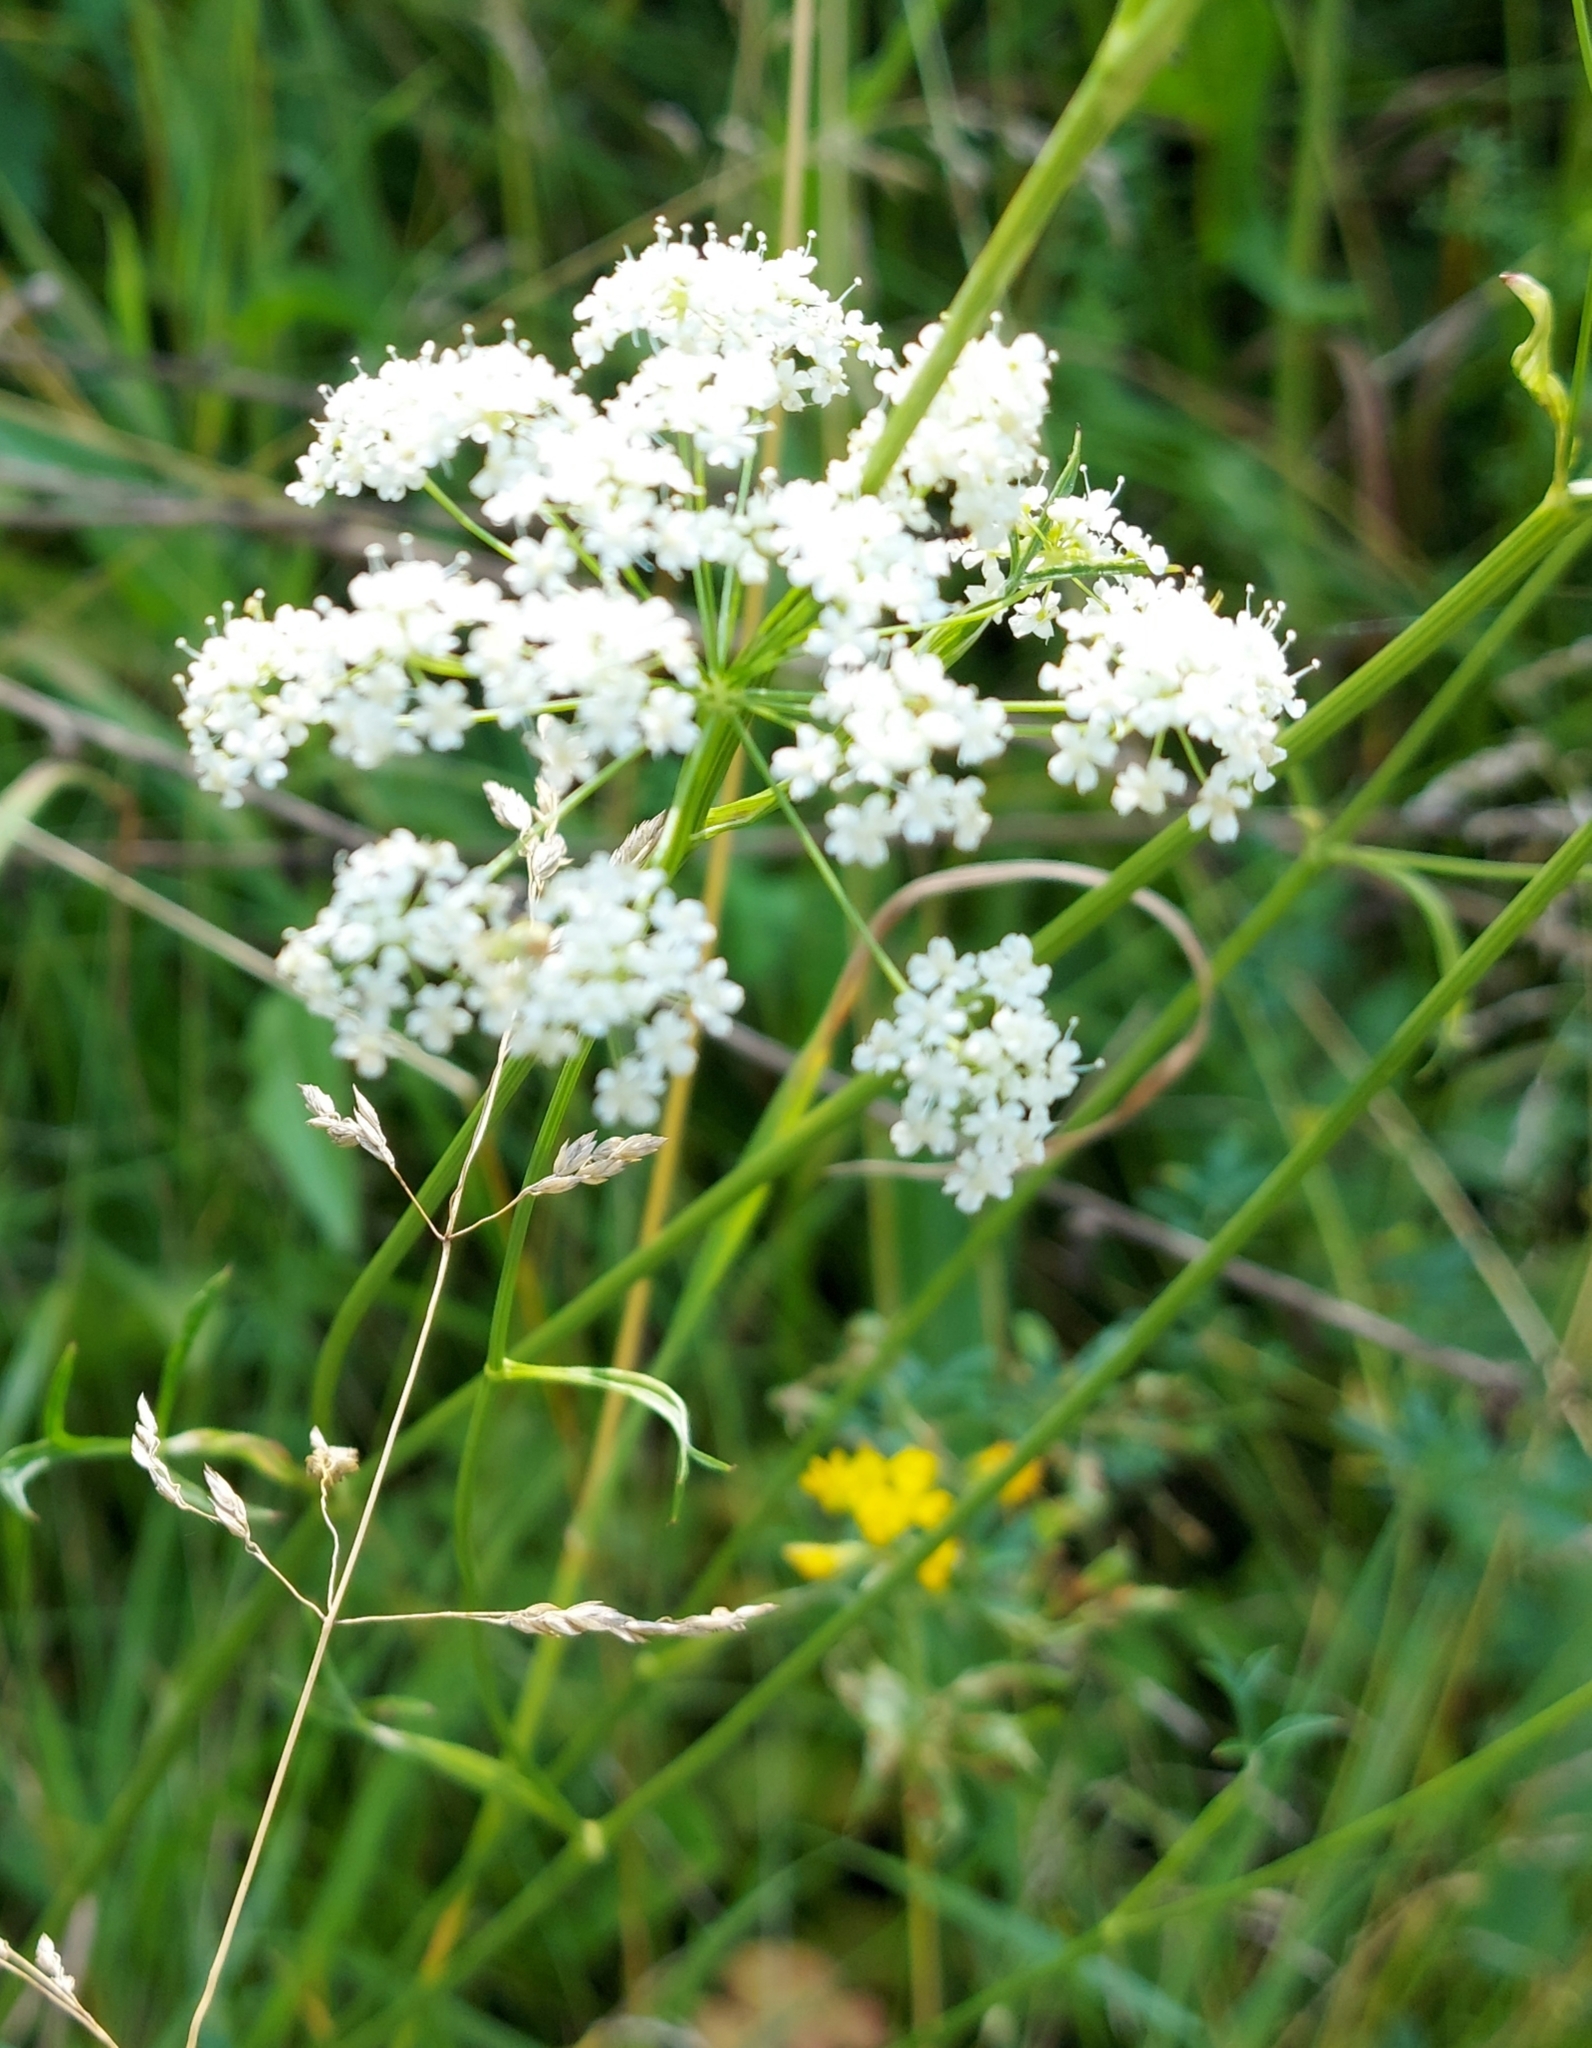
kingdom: Plantae
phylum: Tracheophyta
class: Magnoliopsida
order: Apiales
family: Apiaceae
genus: Pimpinella
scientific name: Pimpinella saxifraga
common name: Burnet-saxifrage
